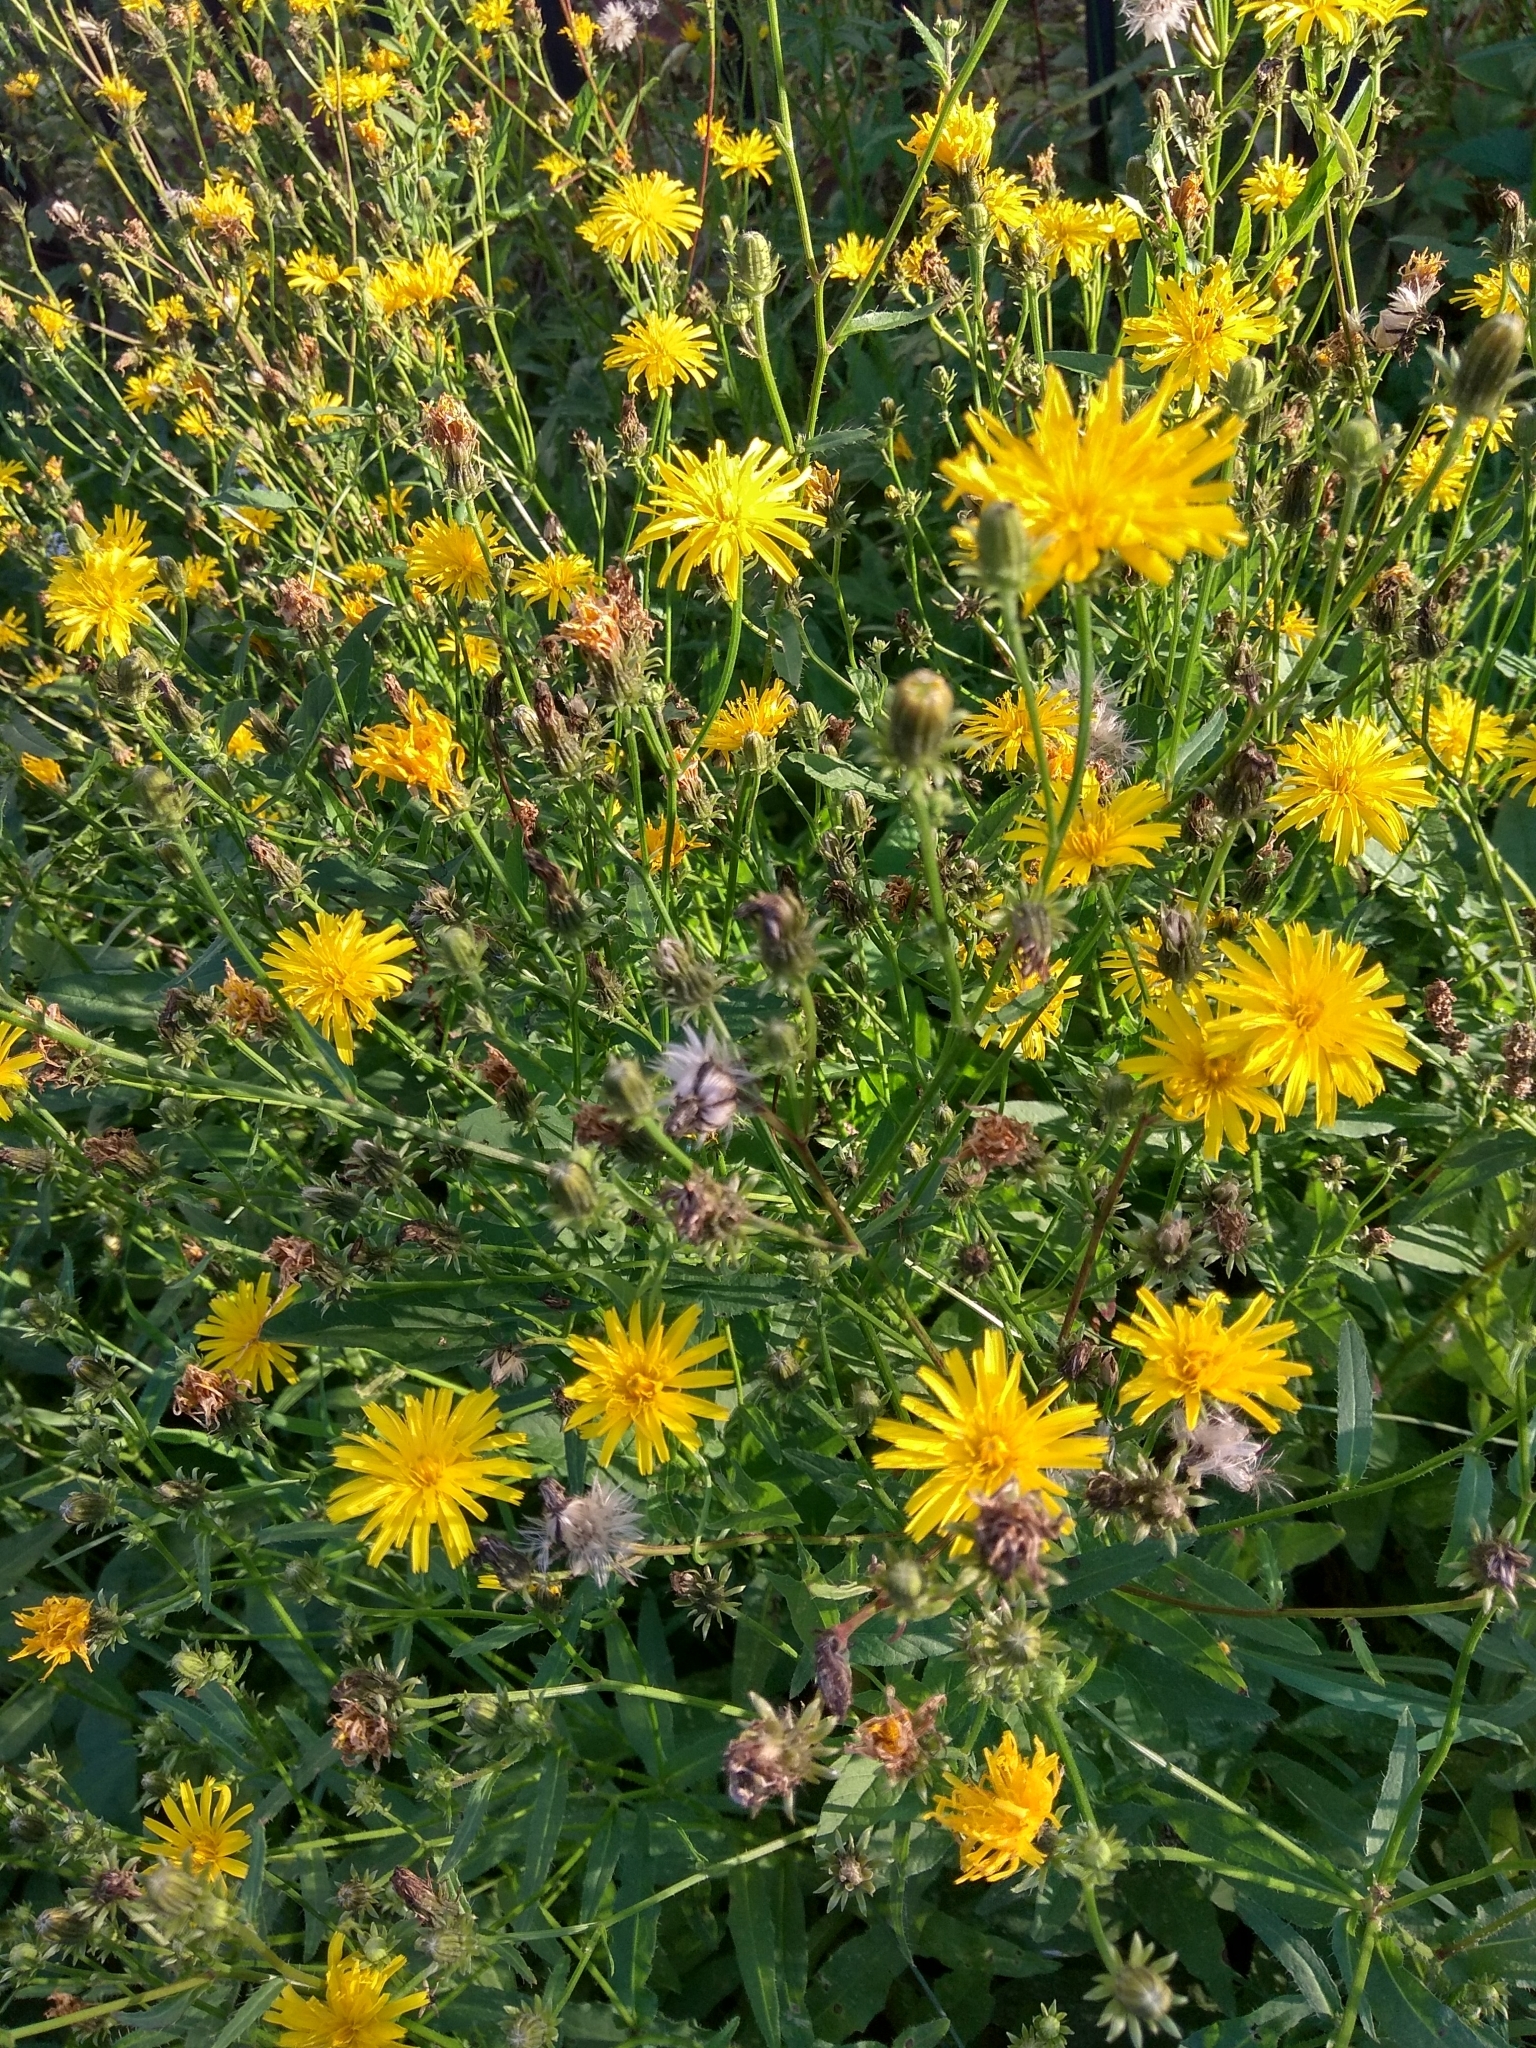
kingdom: Plantae
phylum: Tracheophyta
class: Magnoliopsida
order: Asterales
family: Asteraceae
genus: Picris
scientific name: Picris hieracioides
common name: Hawkweed oxtongue
